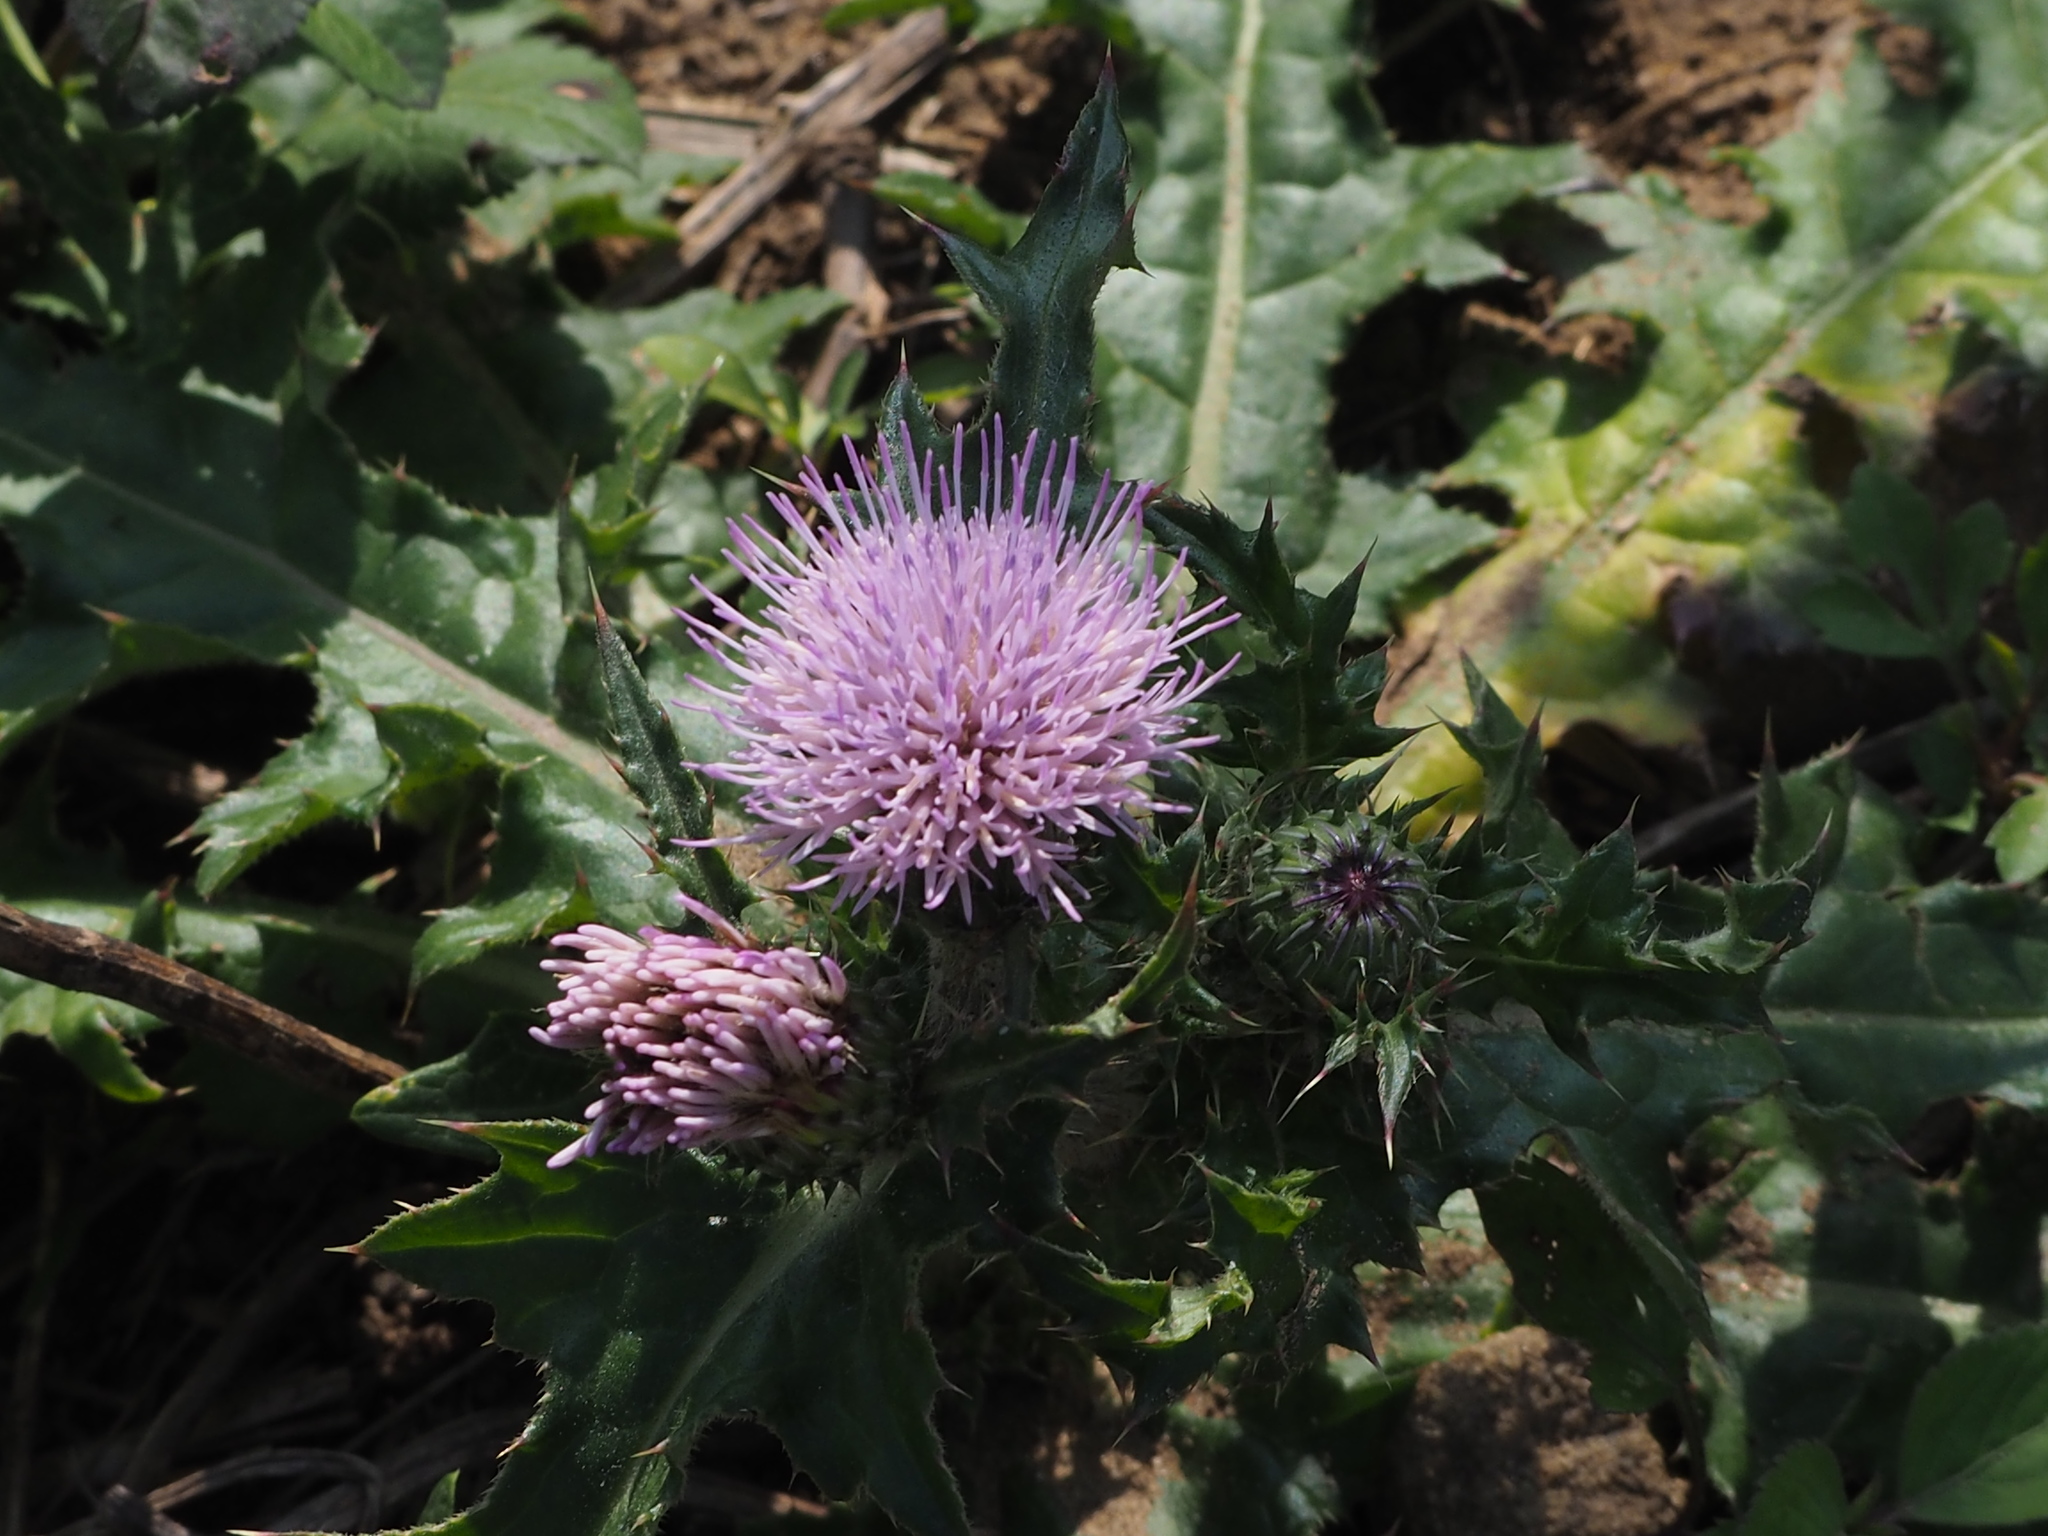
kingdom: Plantae
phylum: Tracheophyta
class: Magnoliopsida
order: Asterales
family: Asteraceae
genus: Cirsium
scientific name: Cirsium japonicum
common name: Japanese thistle
